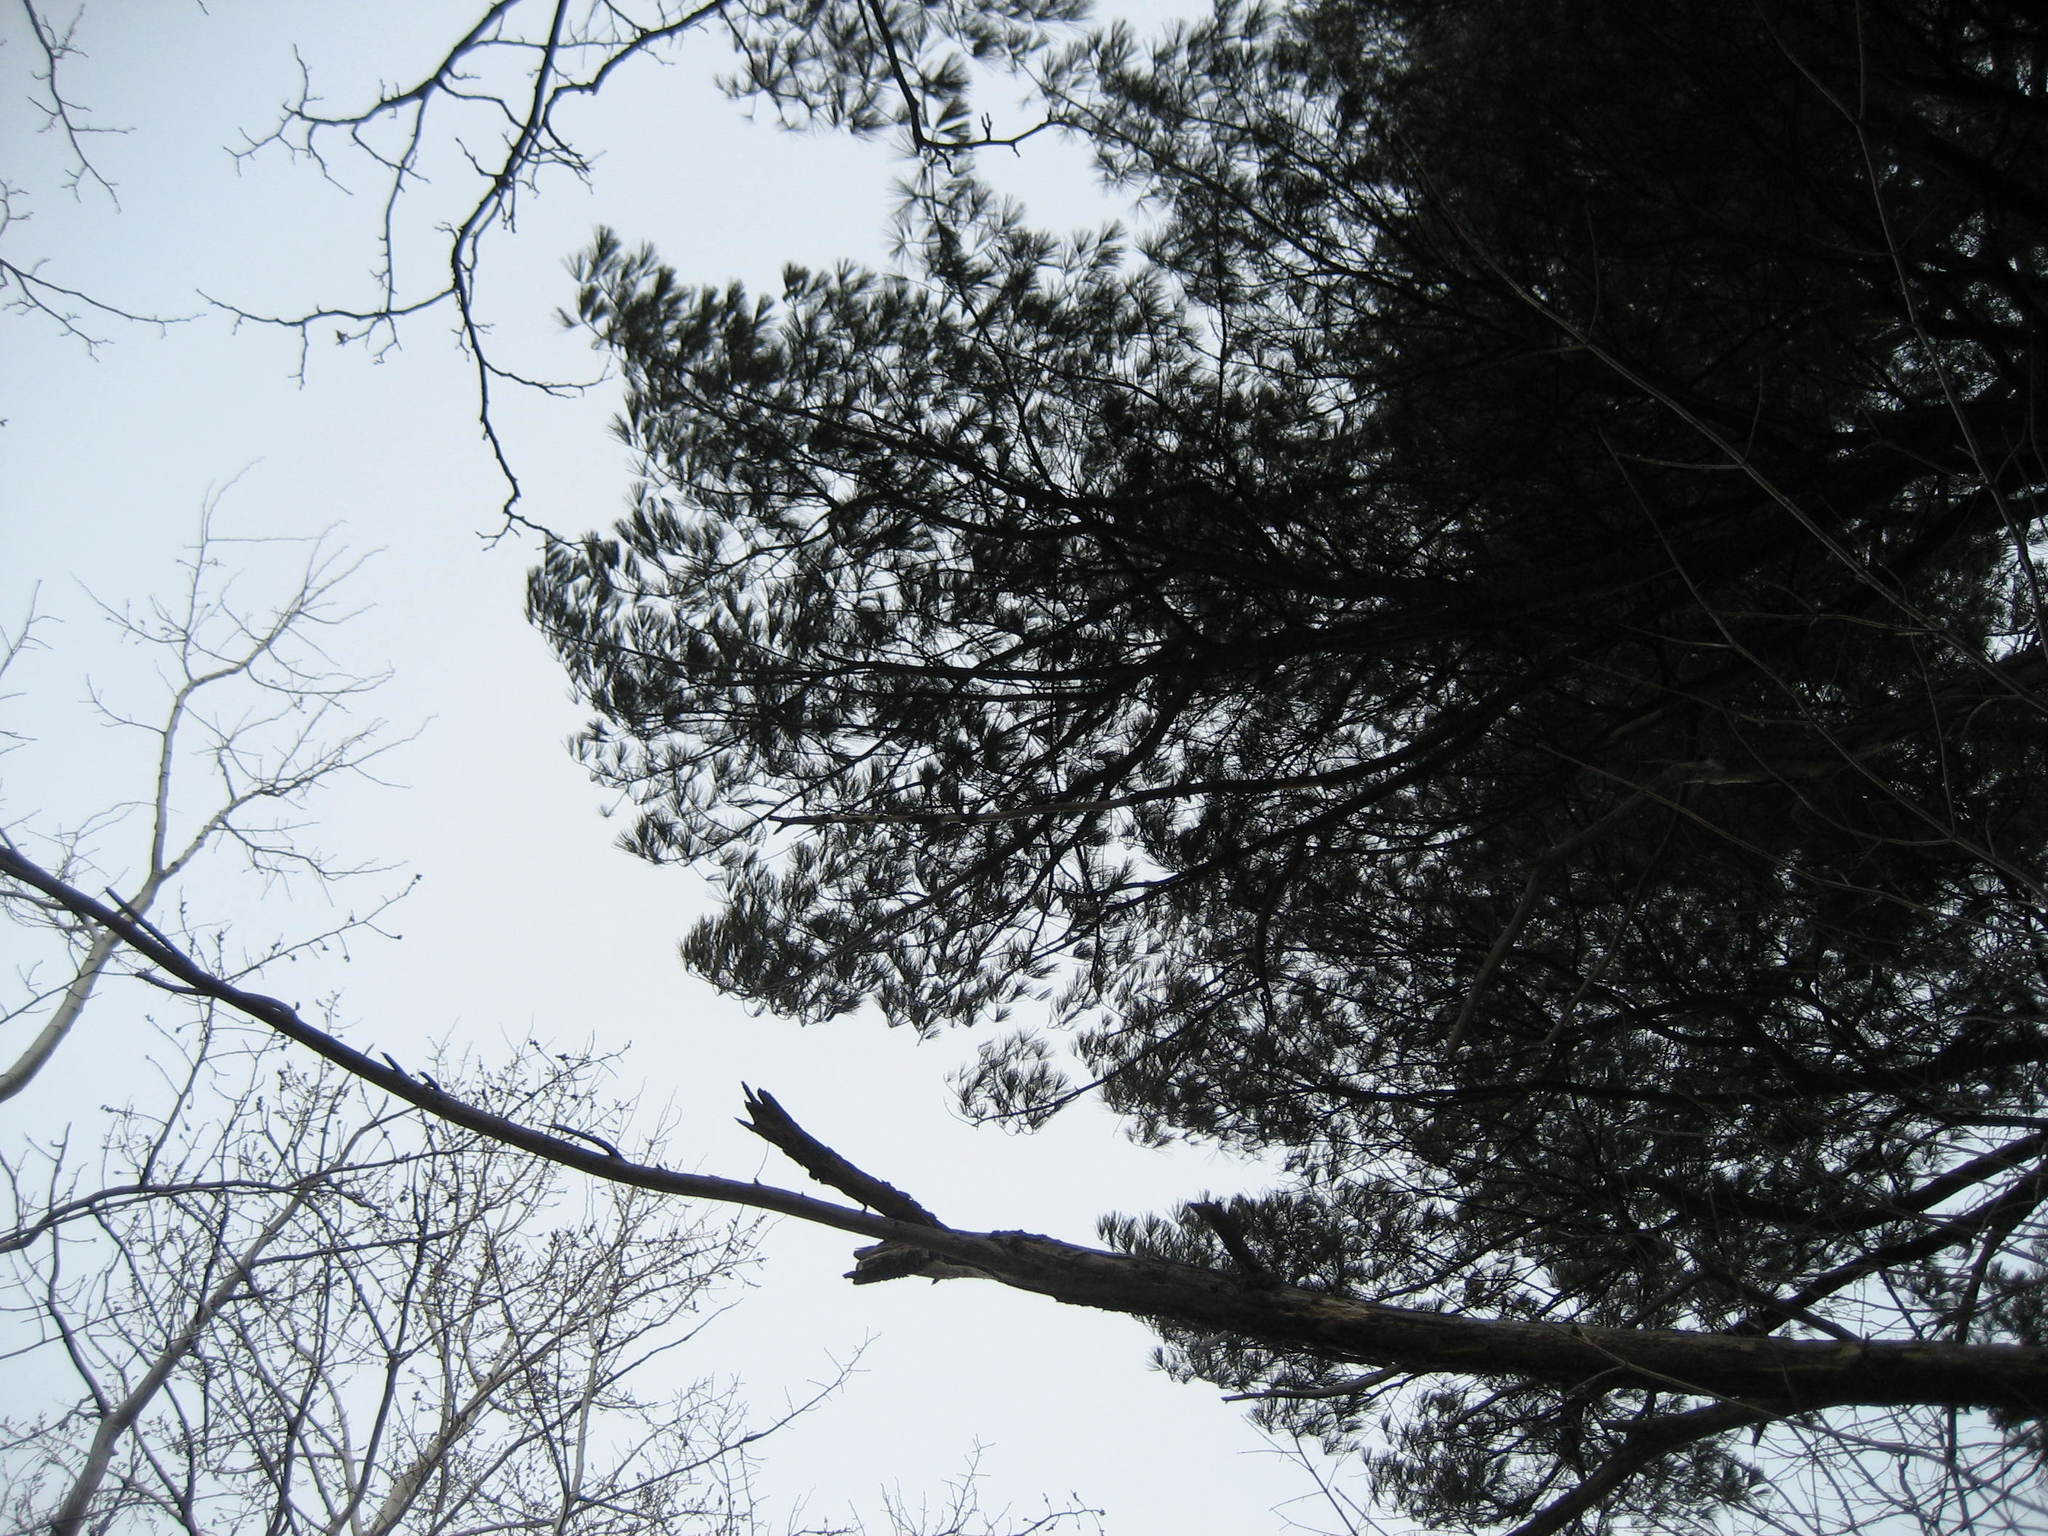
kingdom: Plantae
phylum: Tracheophyta
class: Pinopsida
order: Pinales
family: Pinaceae
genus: Pinus
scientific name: Pinus strobus
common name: Weymouth pine
